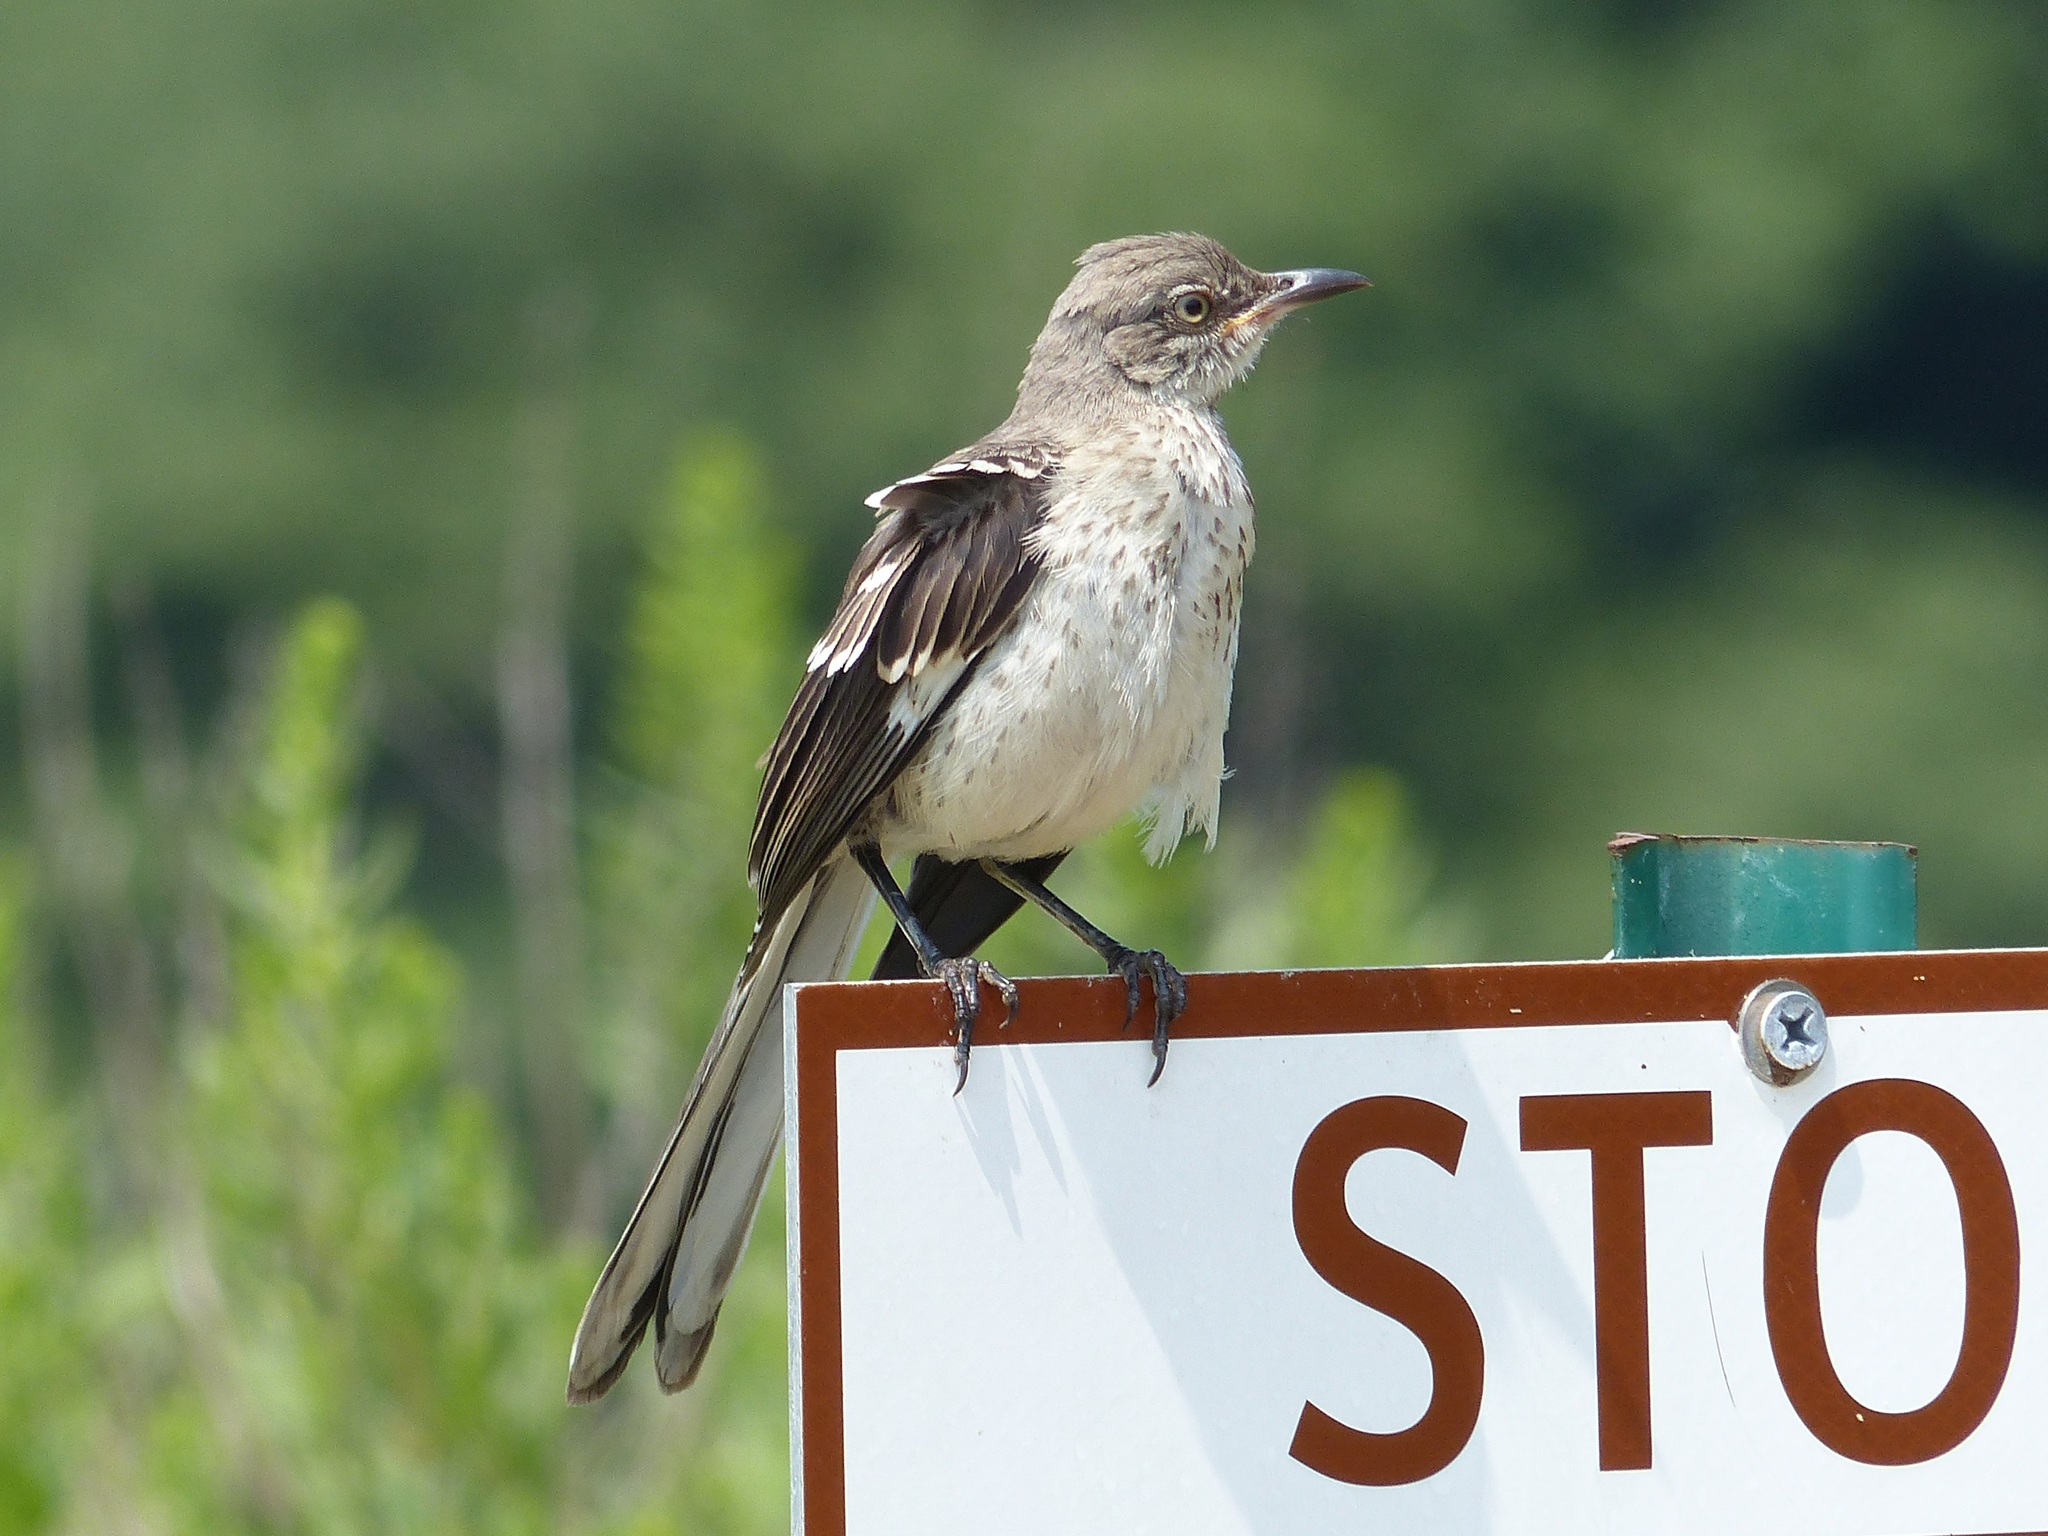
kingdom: Animalia
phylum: Chordata
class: Aves
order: Passeriformes
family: Mimidae
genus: Mimus
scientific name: Mimus polyglottos
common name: Northern mockingbird
